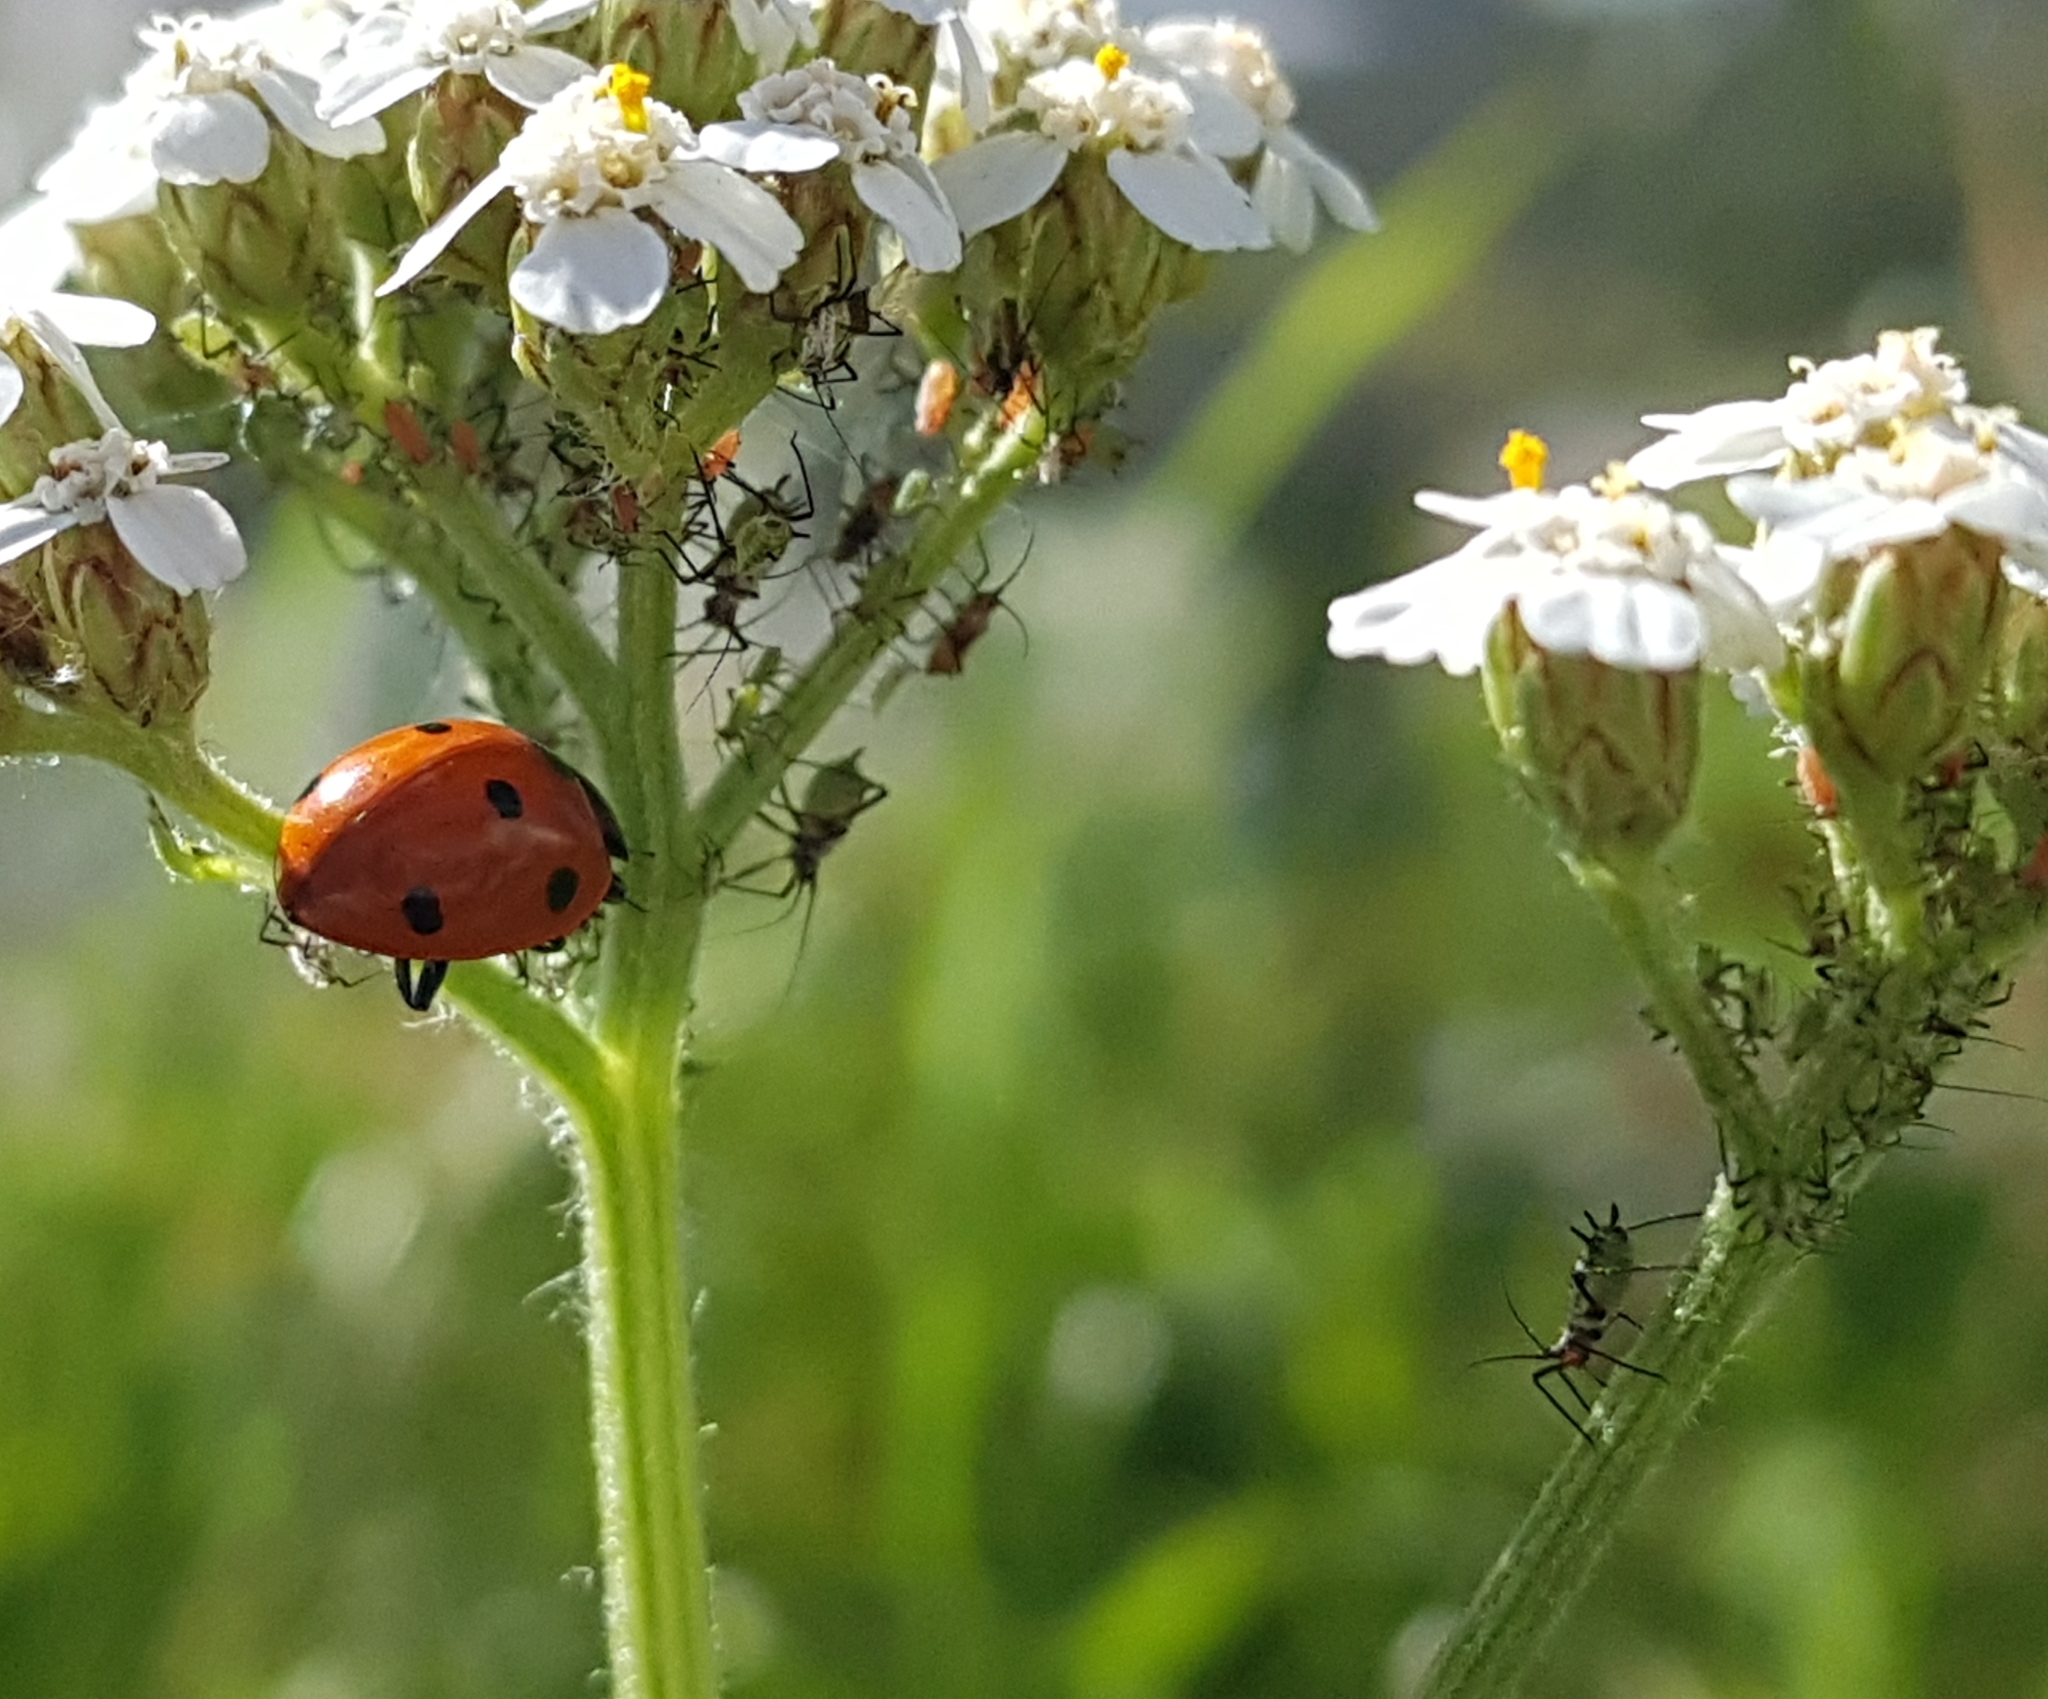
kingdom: Animalia
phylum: Arthropoda
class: Insecta
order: Coleoptera
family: Coccinellidae
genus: Coccinella
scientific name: Coccinella septempunctata
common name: Sevenspotted lady beetle
